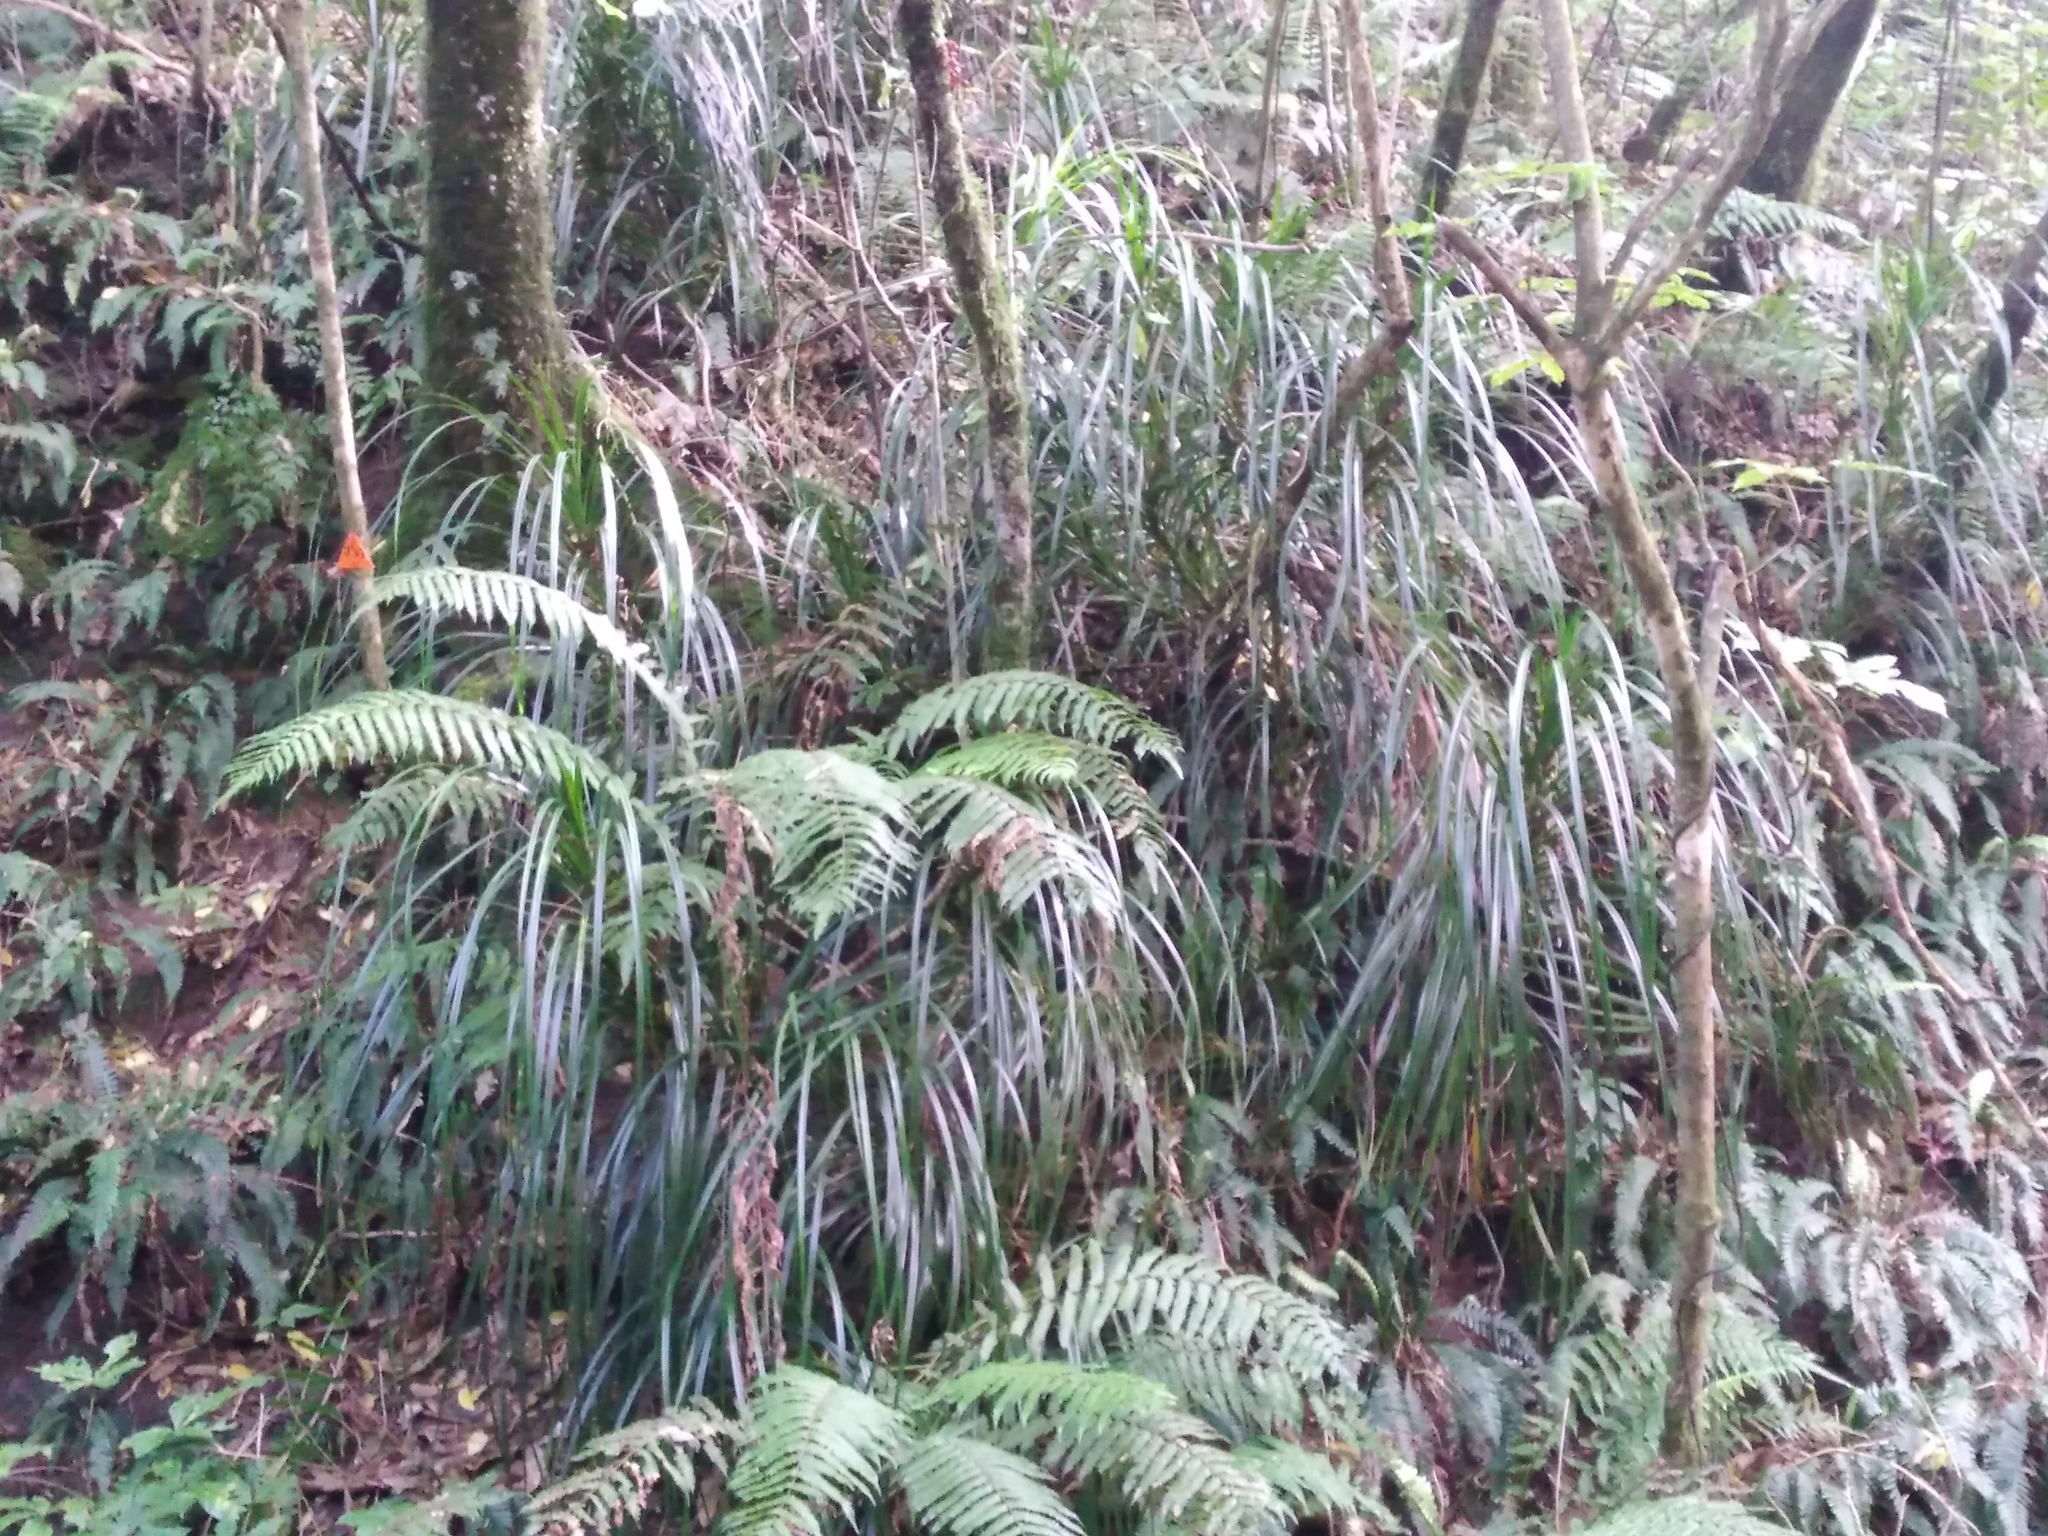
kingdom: Plantae
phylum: Tracheophyta
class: Liliopsida
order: Pandanales
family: Pandanaceae
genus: Freycinetia
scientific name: Freycinetia banksii
